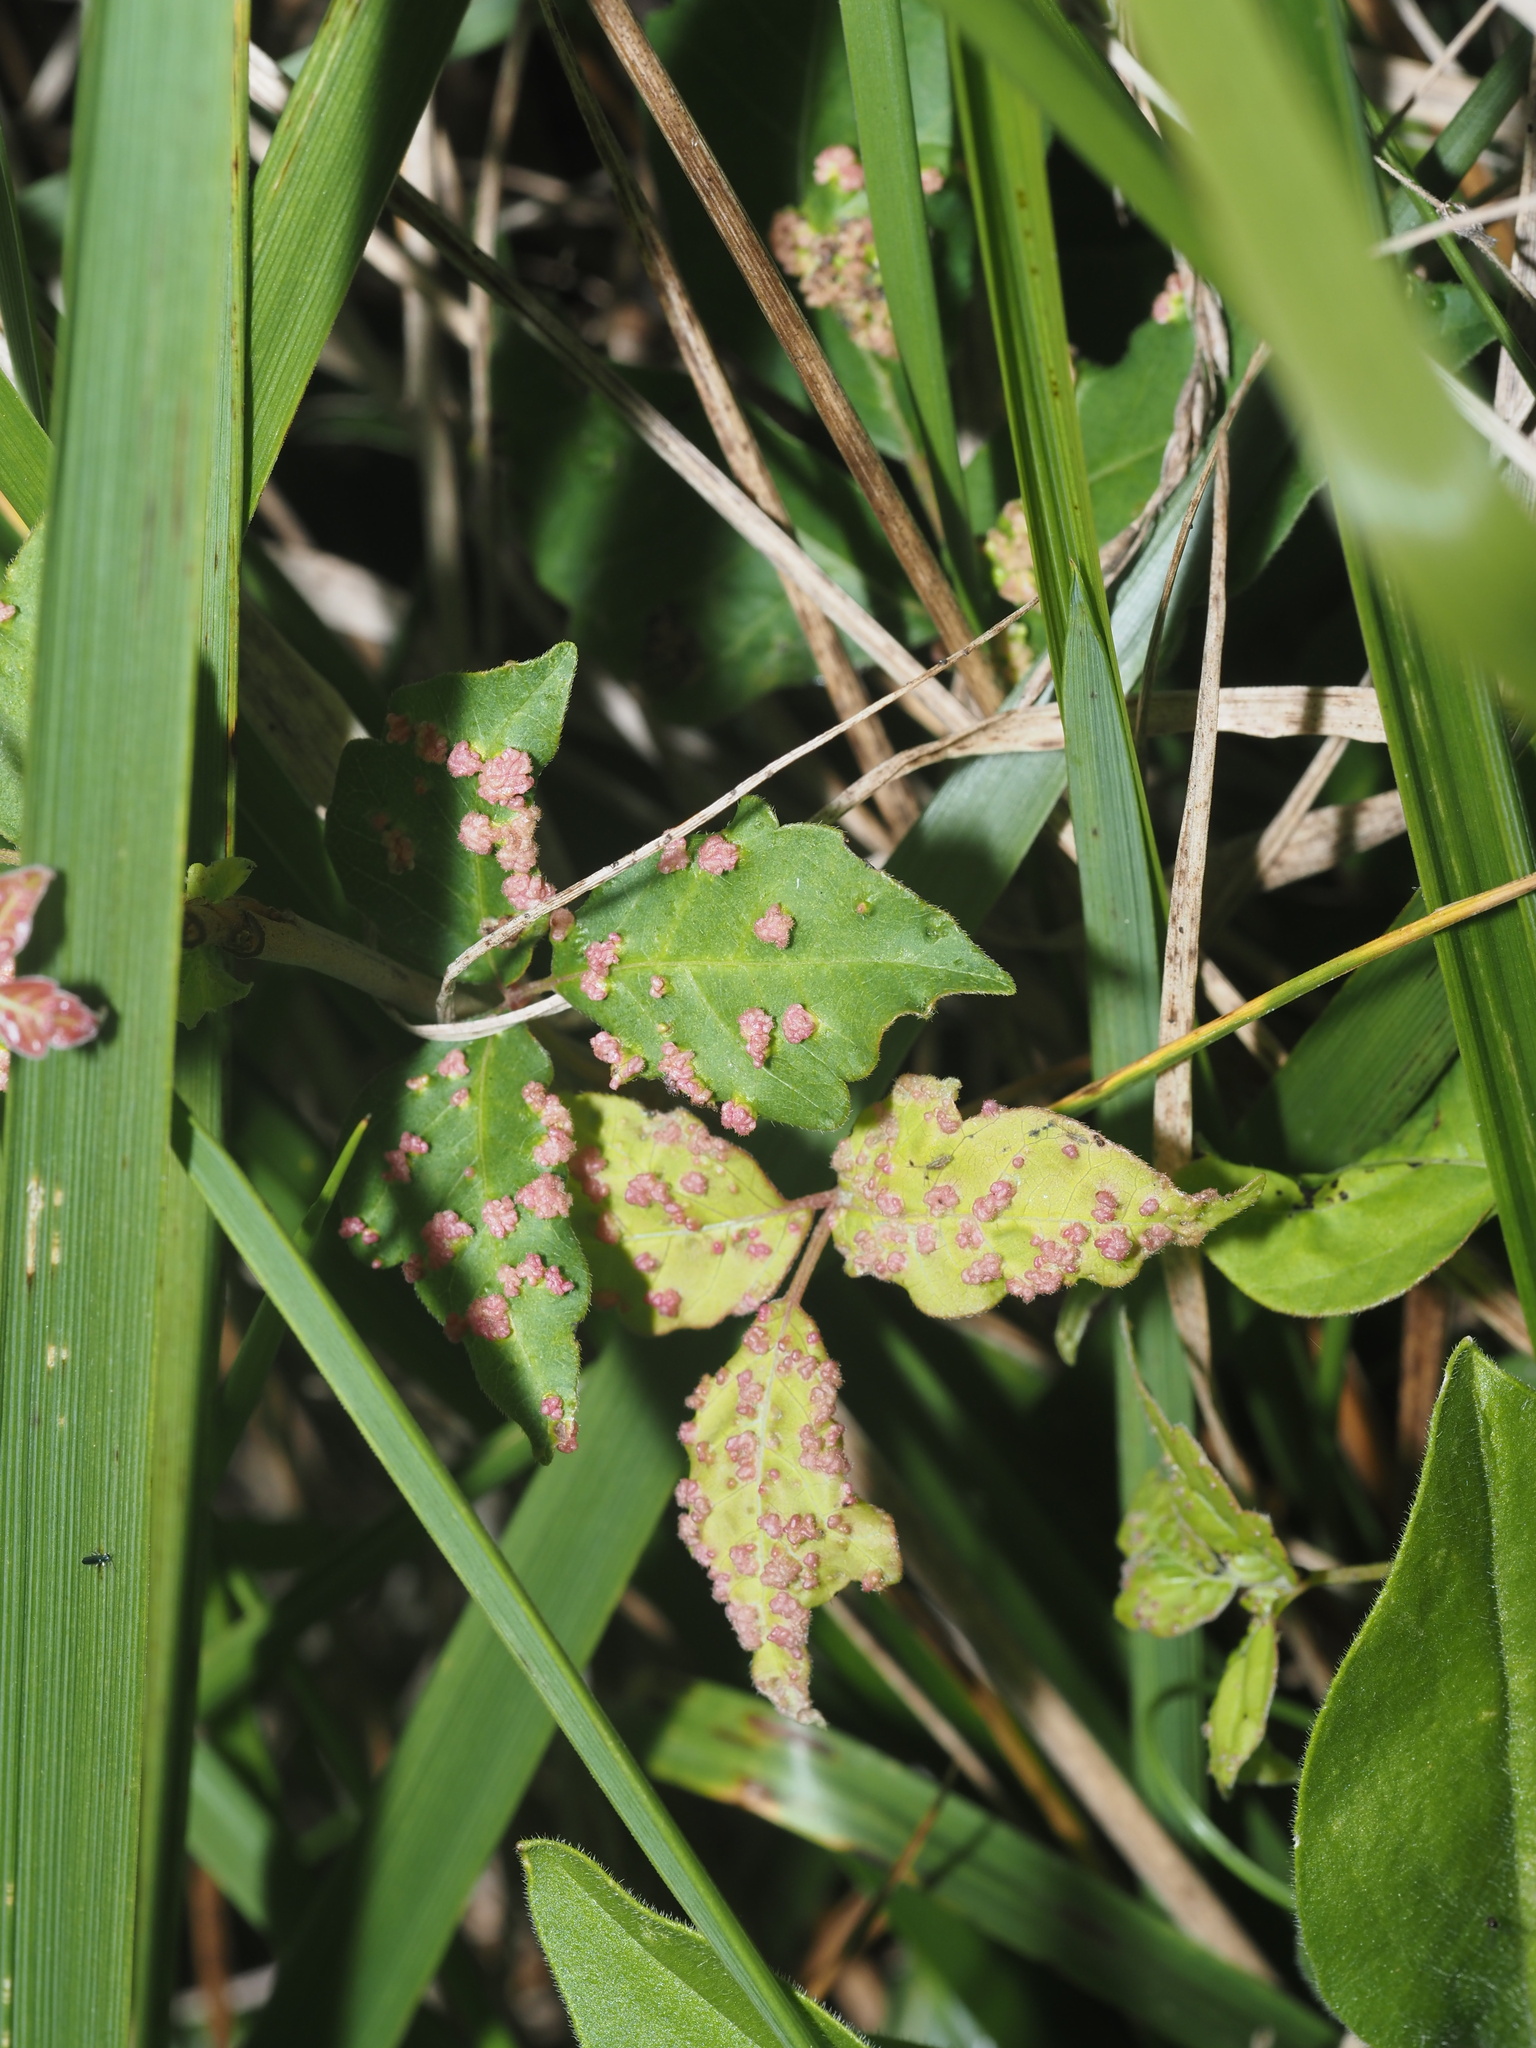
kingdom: Animalia
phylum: Arthropoda
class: Arachnida
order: Trombidiformes
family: Eriophyidae
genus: Aculops
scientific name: Aculops
